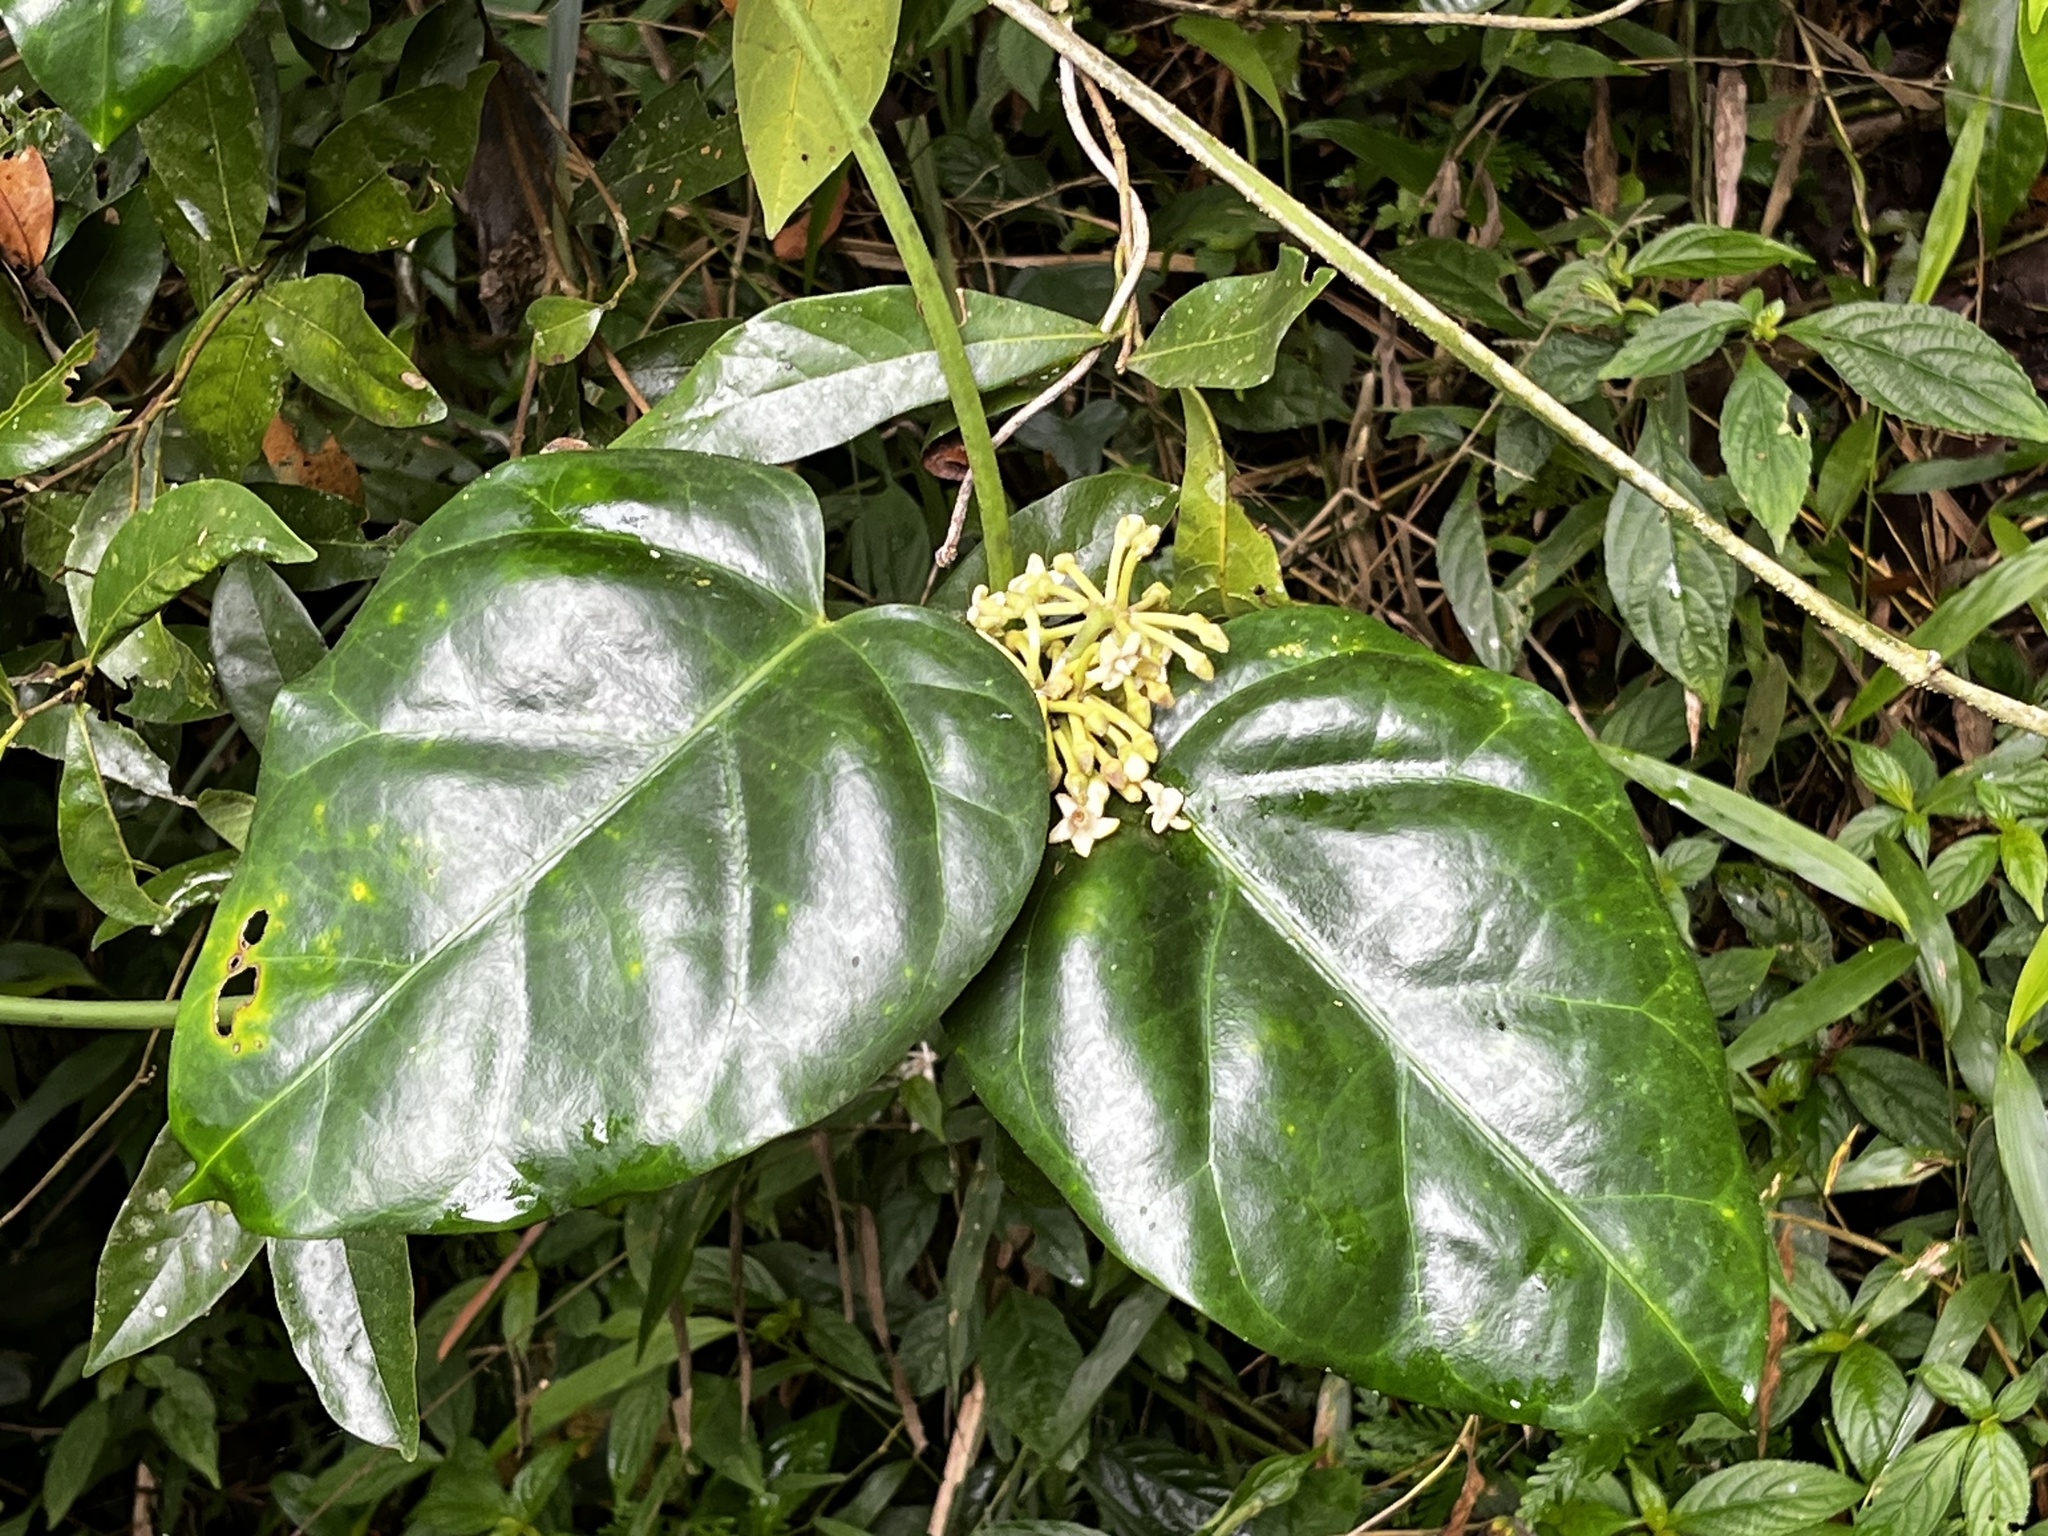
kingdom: Plantae
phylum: Tracheophyta
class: Magnoliopsida
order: Gentianales
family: Apocynaceae
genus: Sinomarsdenia
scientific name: Sinomarsdenia formosana
